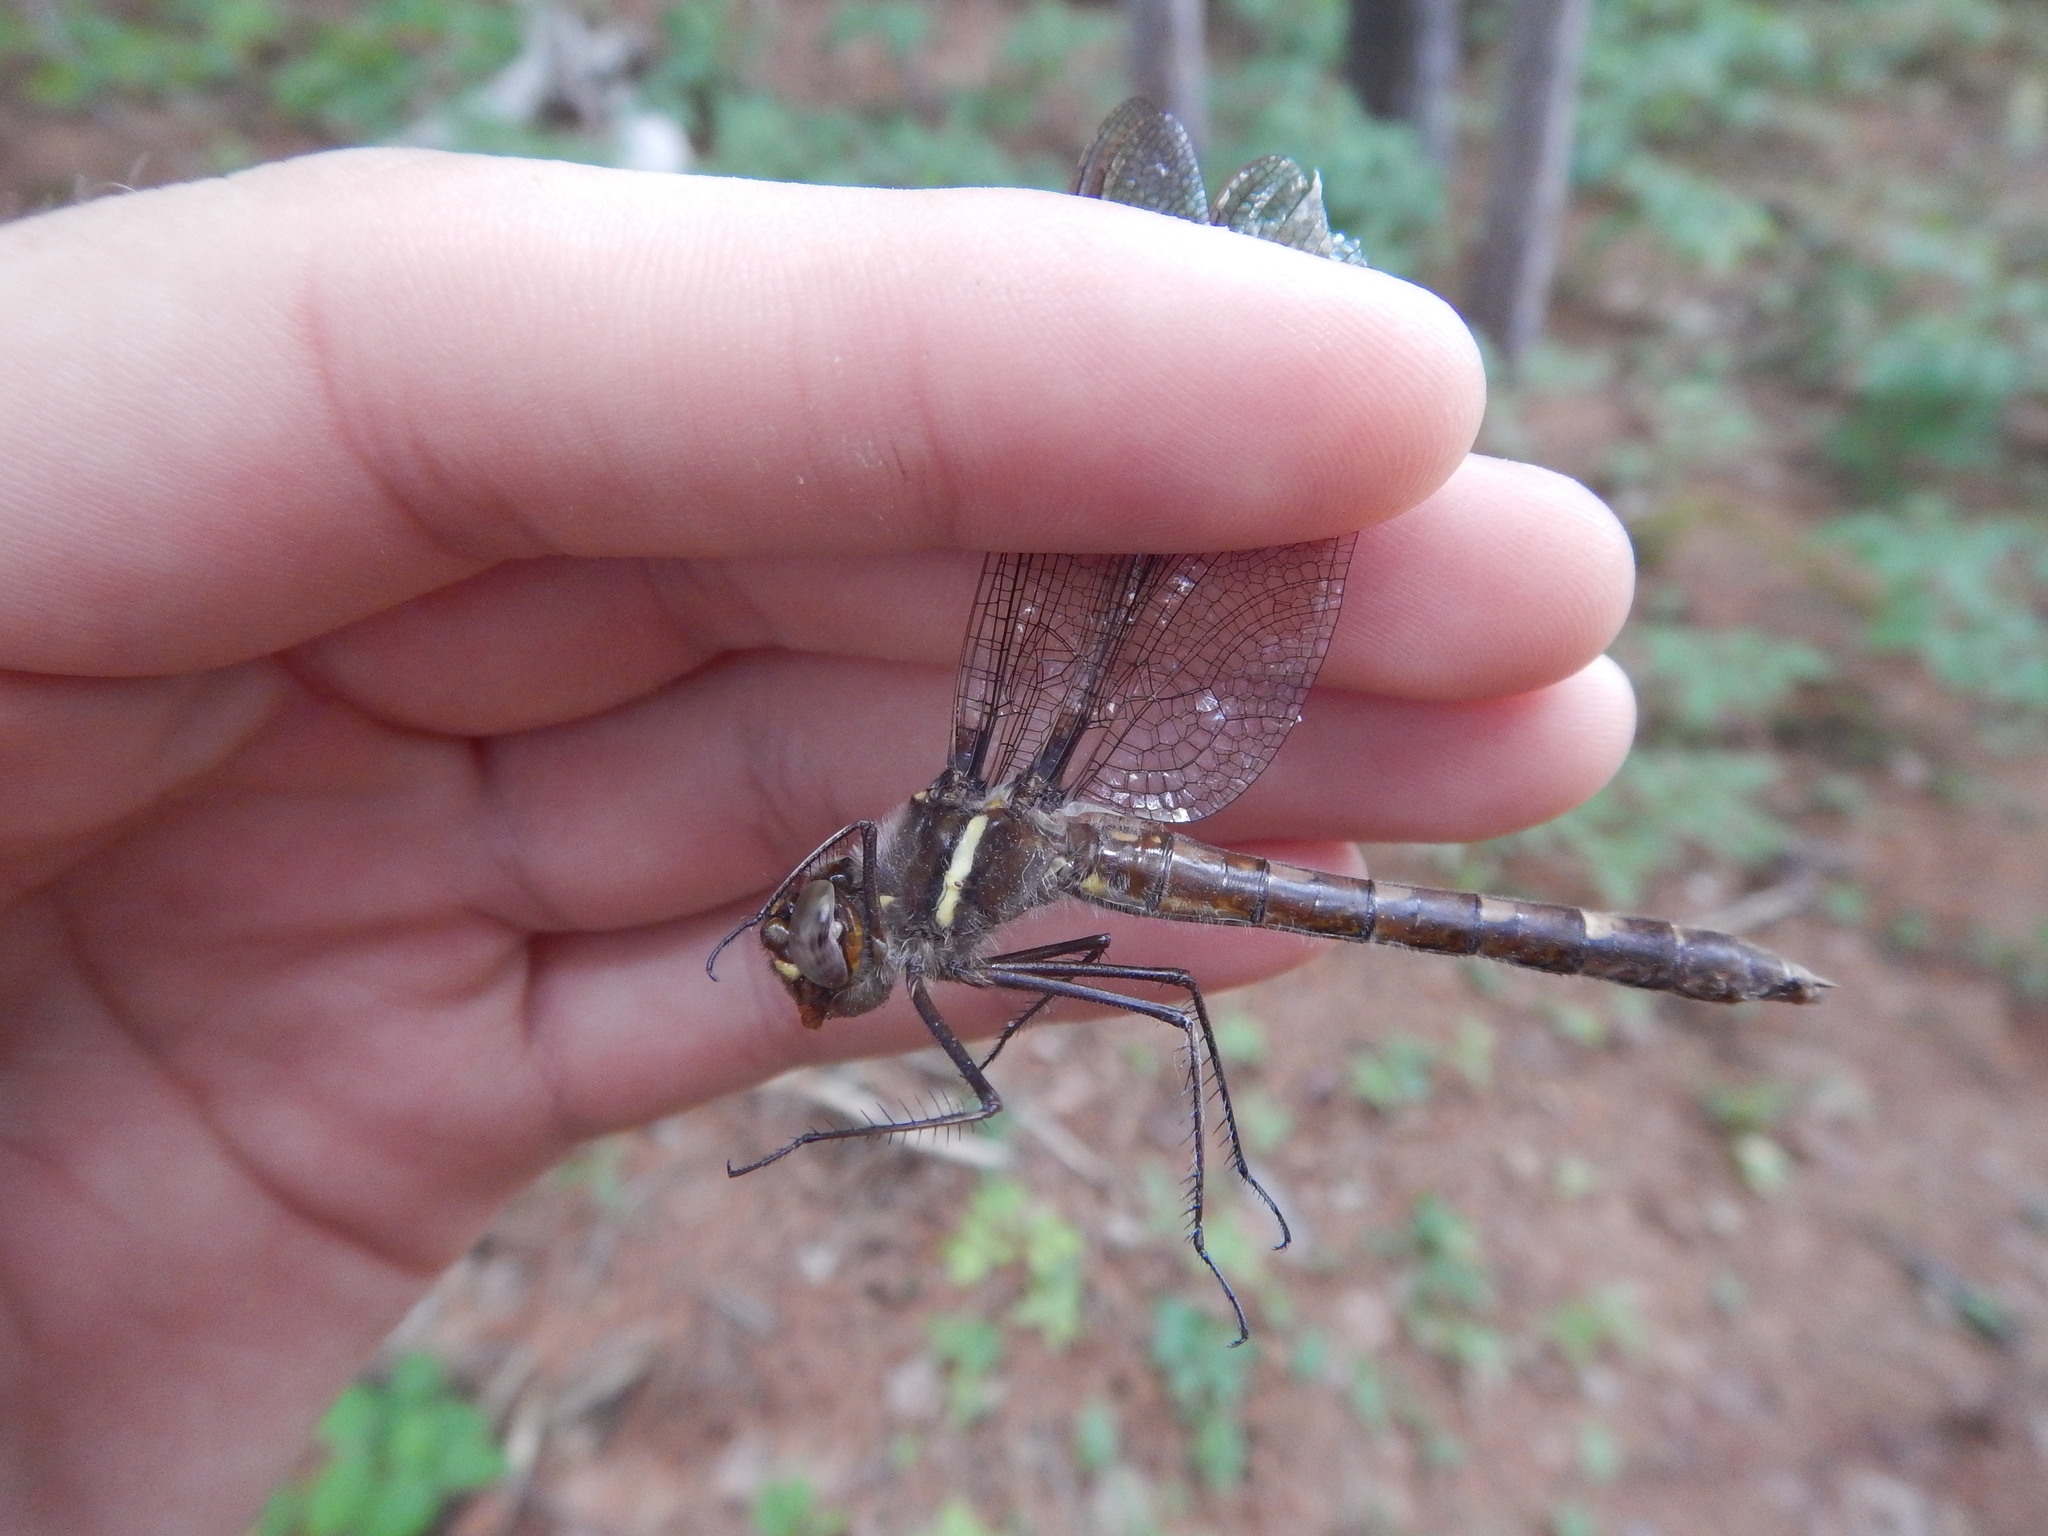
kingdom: Animalia
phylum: Arthropoda
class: Insecta
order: Odonata
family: Macromiidae
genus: Didymops
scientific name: Didymops transversa
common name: Stream cruiser
